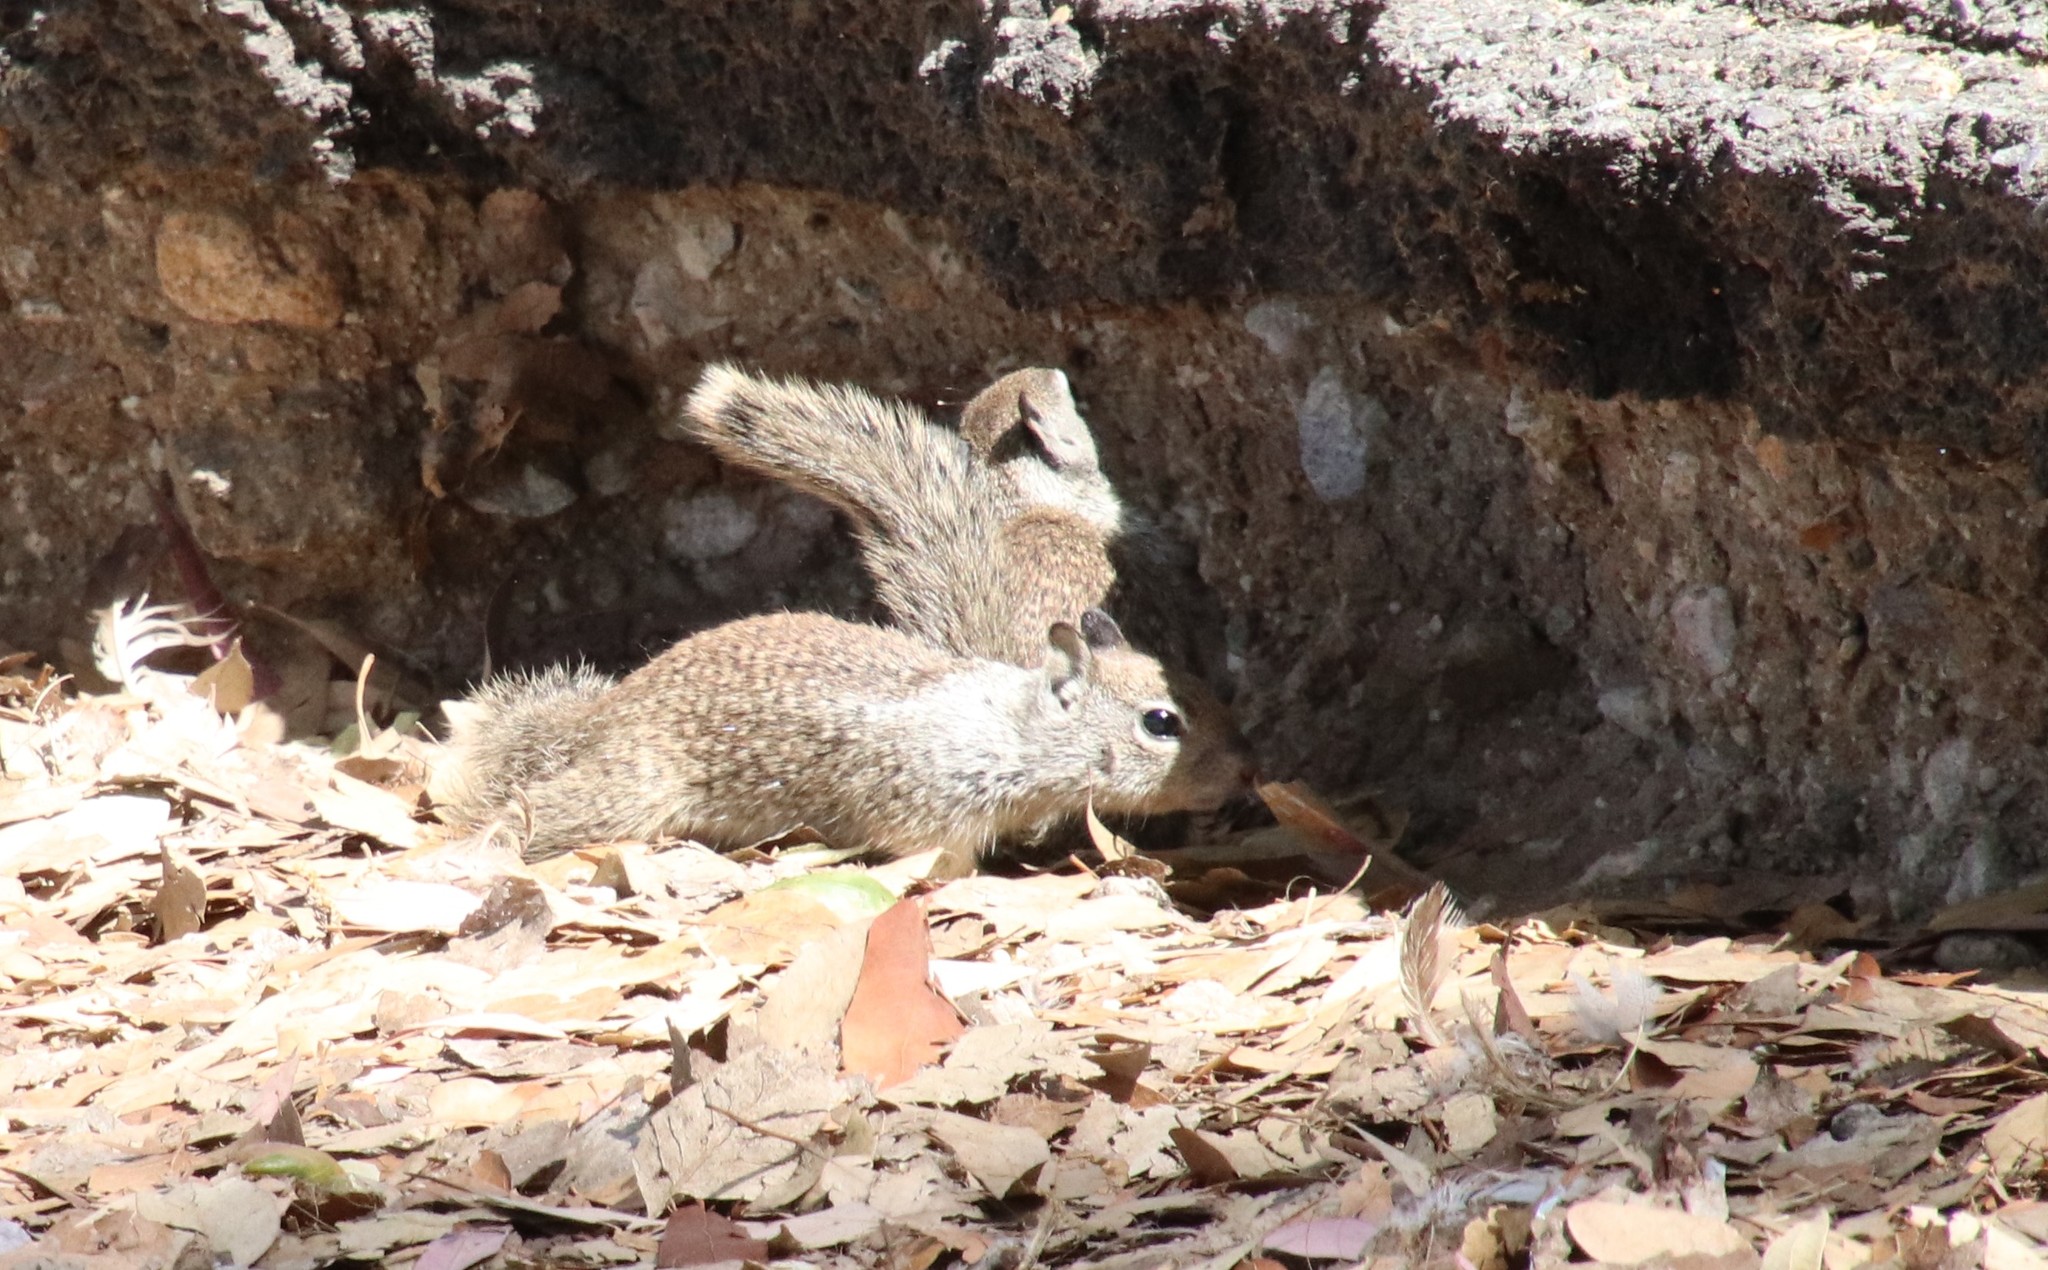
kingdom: Animalia
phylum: Chordata
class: Mammalia
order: Rodentia
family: Sciuridae
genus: Otospermophilus
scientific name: Otospermophilus beecheyi
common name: California ground squirrel
